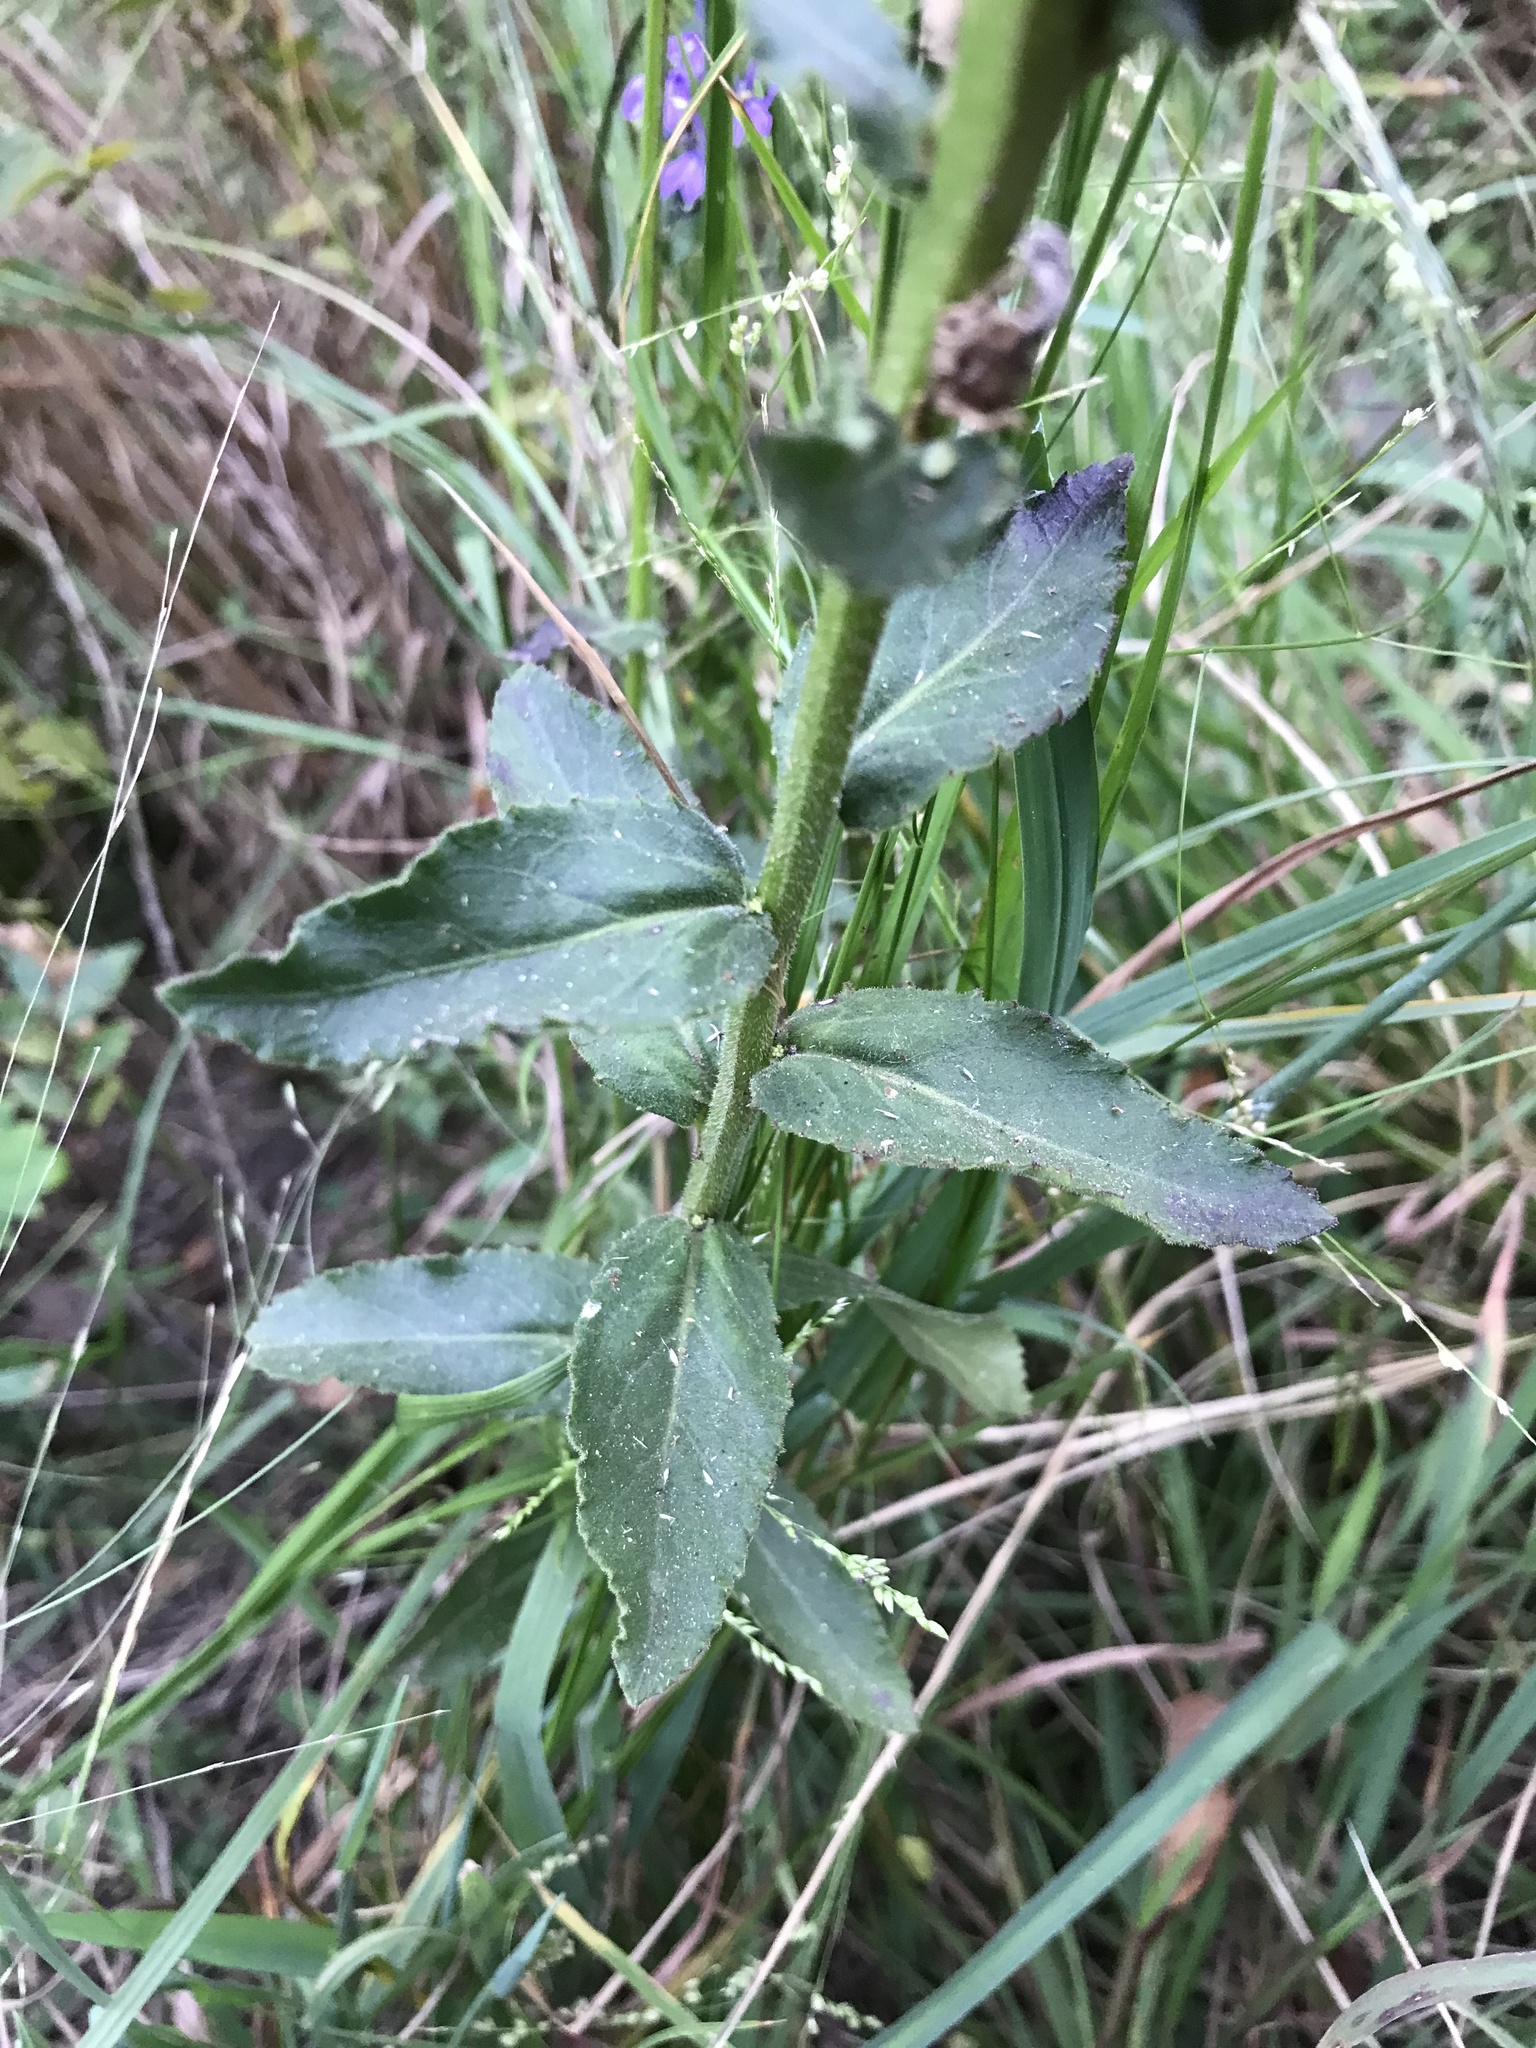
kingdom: Plantae
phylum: Tracheophyta
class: Magnoliopsida
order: Asterales
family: Campanulaceae
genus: Lobelia
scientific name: Lobelia puberula
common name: Purple dewdrop
